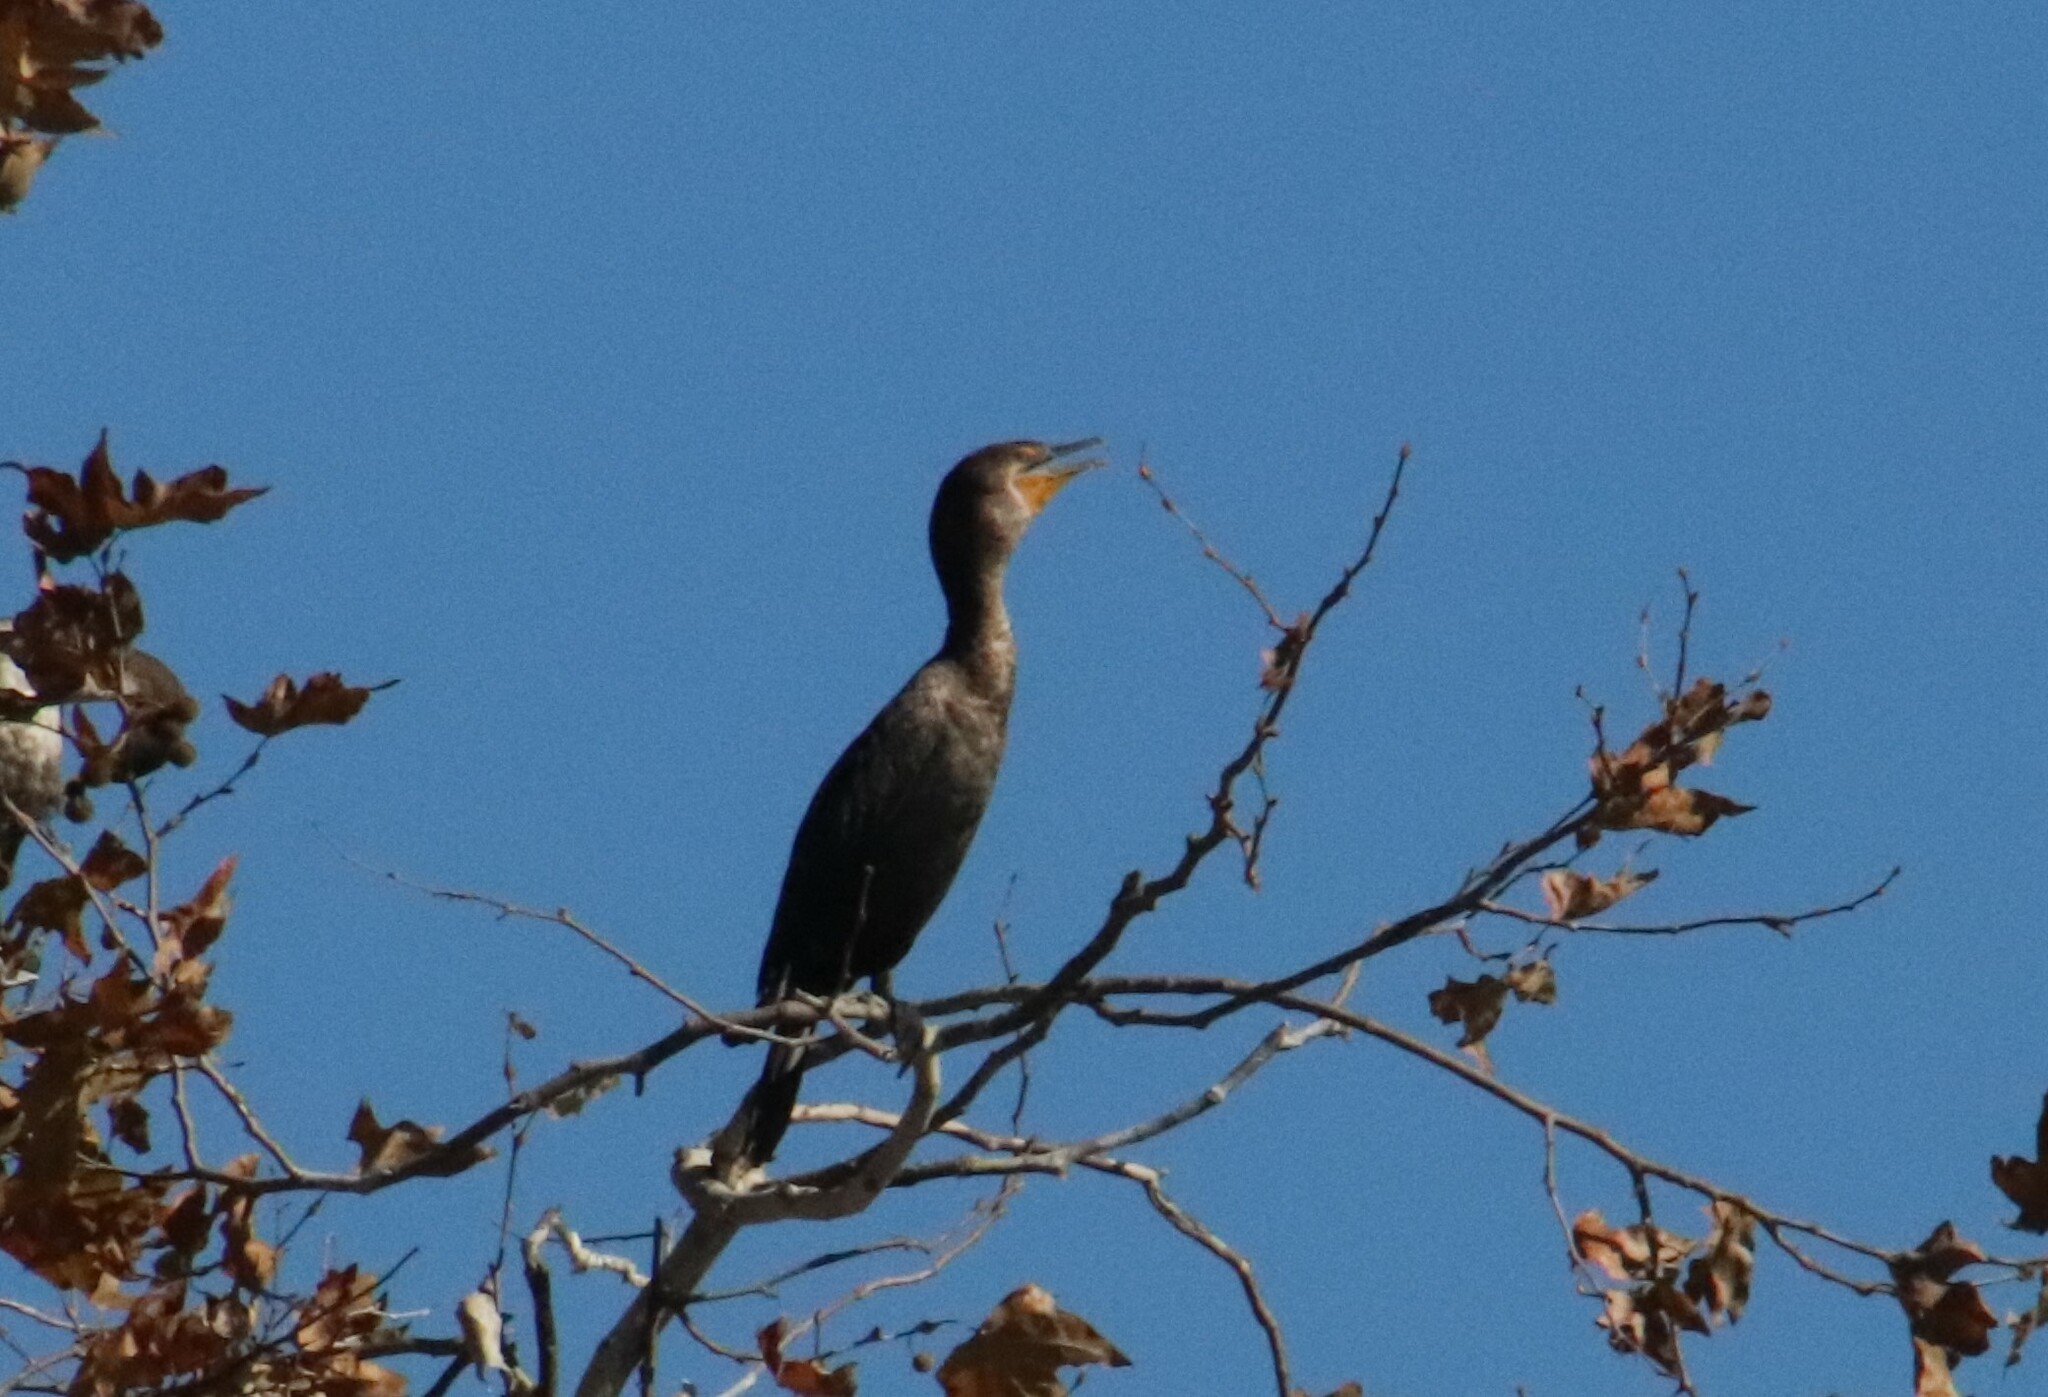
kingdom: Animalia
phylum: Chordata
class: Aves
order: Suliformes
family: Phalacrocoracidae
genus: Phalacrocorax
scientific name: Phalacrocorax auritus
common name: Double-crested cormorant
